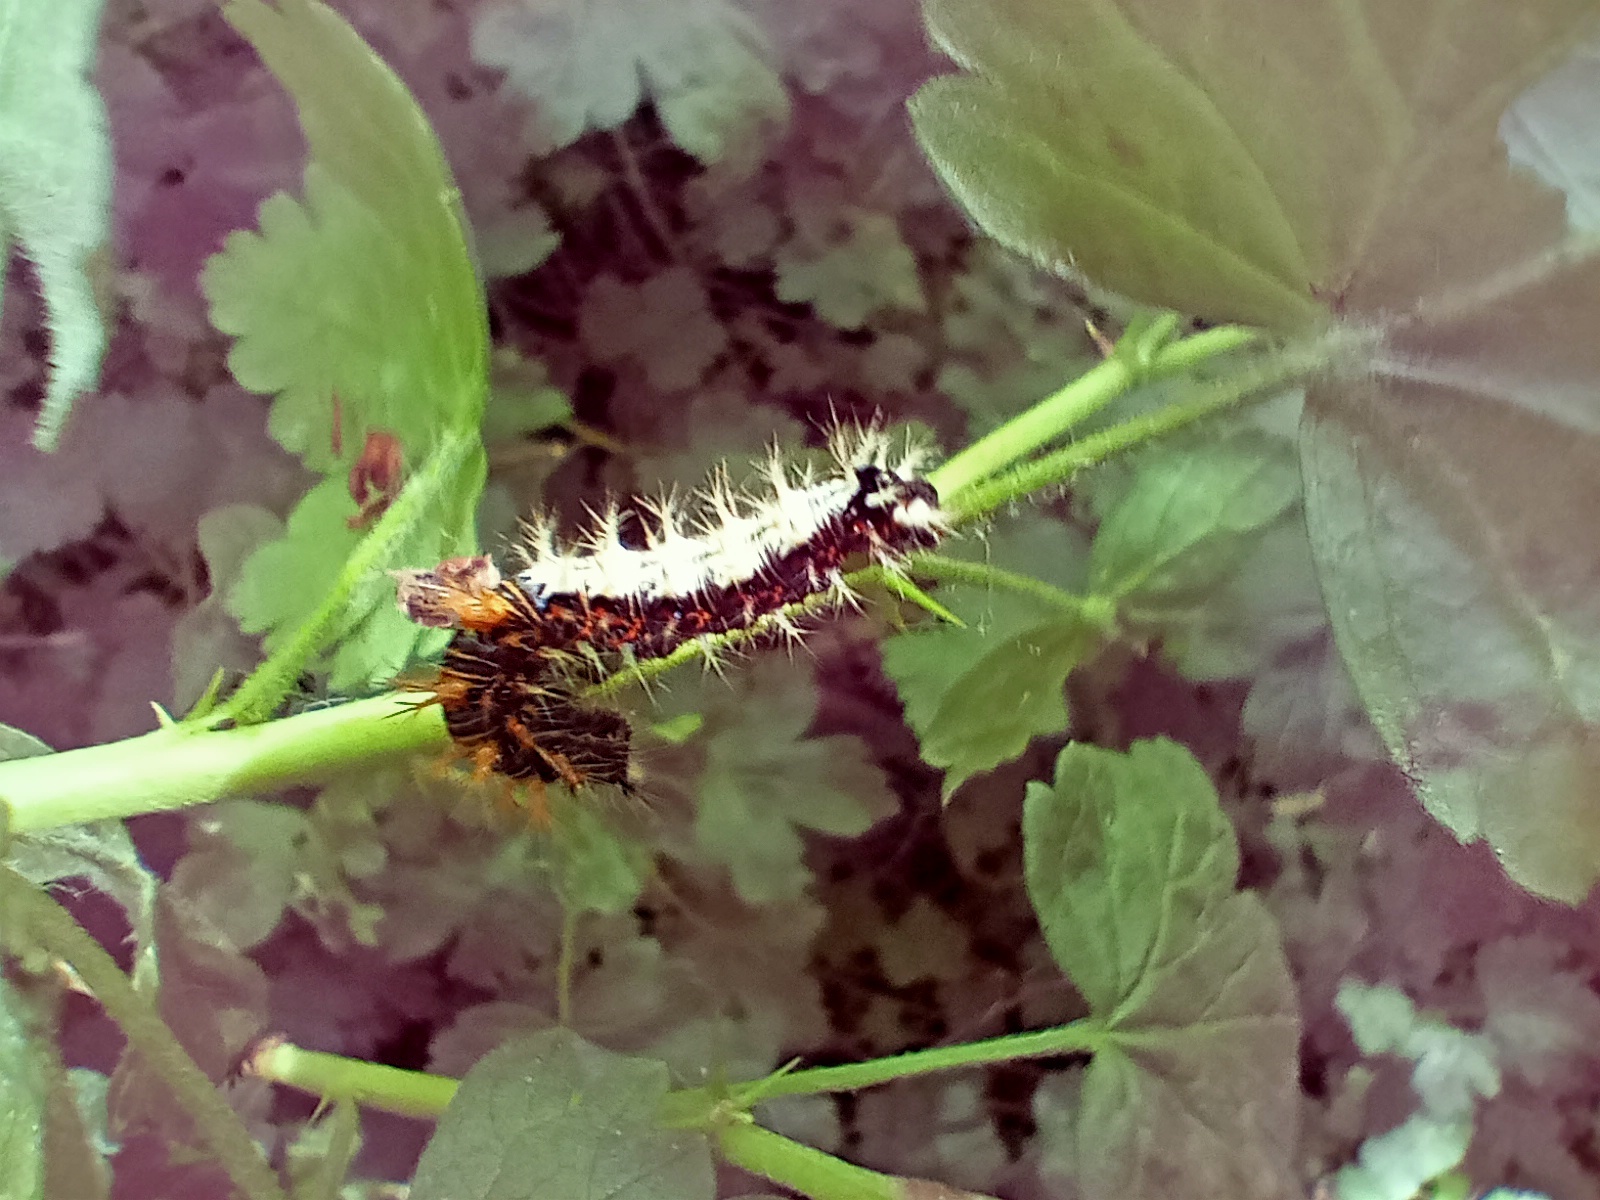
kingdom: Animalia
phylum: Arthropoda
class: Insecta
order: Lepidoptera
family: Nymphalidae
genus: Polygonia
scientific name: Polygonia c-album
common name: Comma
